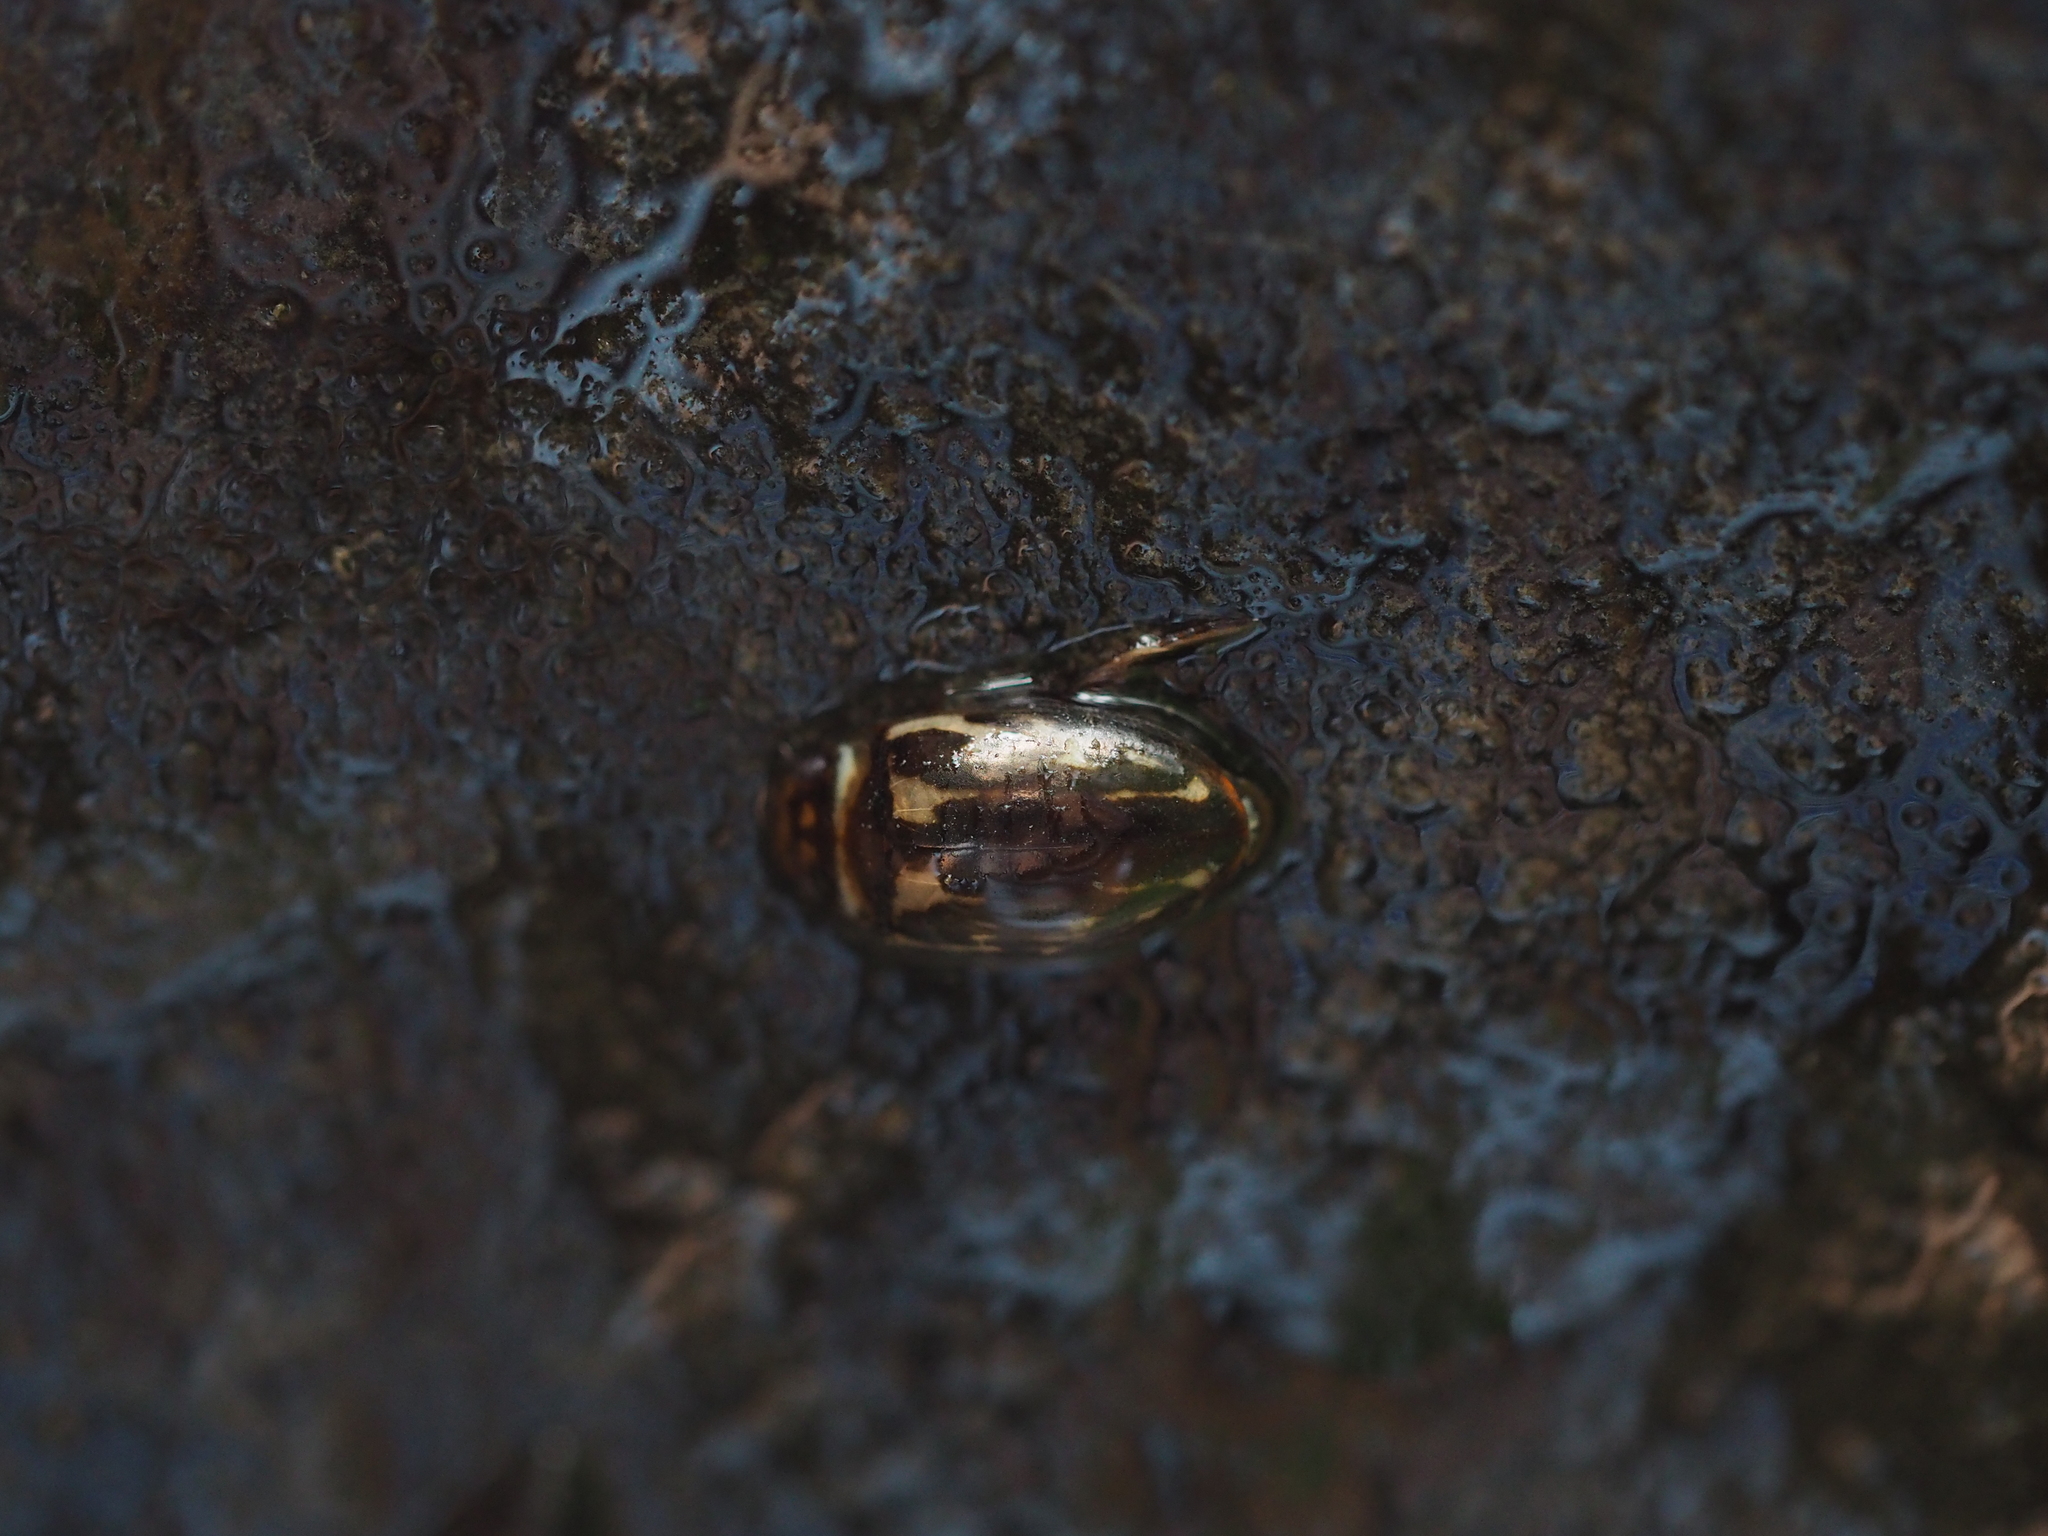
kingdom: Animalia
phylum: Arthropoda
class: Insecta
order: Coleoptera
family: Dytiscidae
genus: Platambus
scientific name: Platambus maculatus
